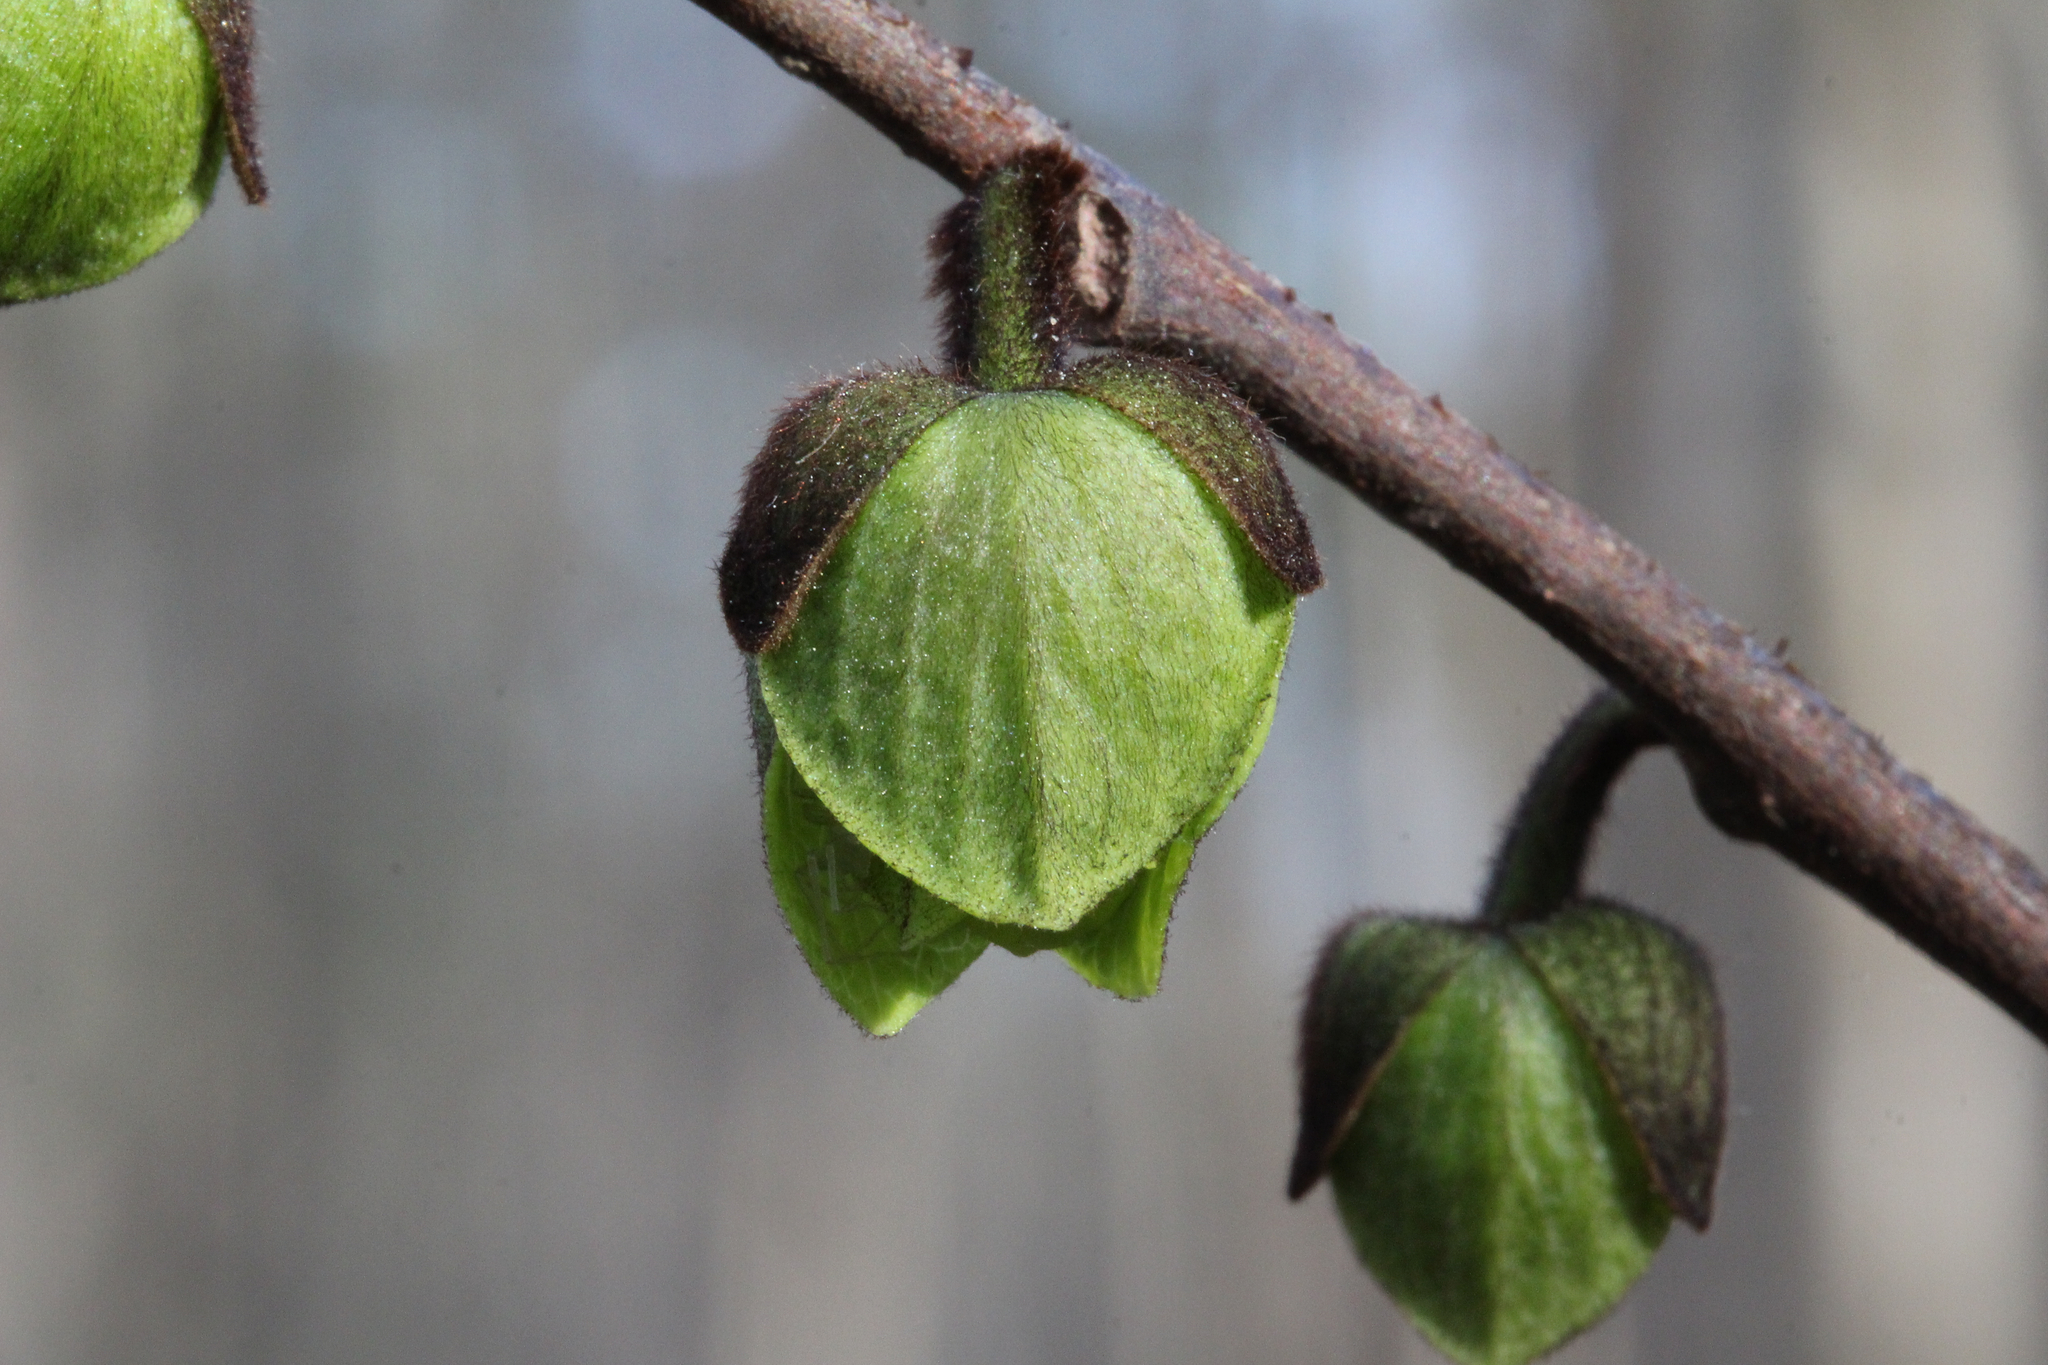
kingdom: Plantae
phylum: Tracheophyta
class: Magnoliopsida
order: Magnoliales
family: Annonaceae
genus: Asimina
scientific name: Asimina triloba
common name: Dog-banana
